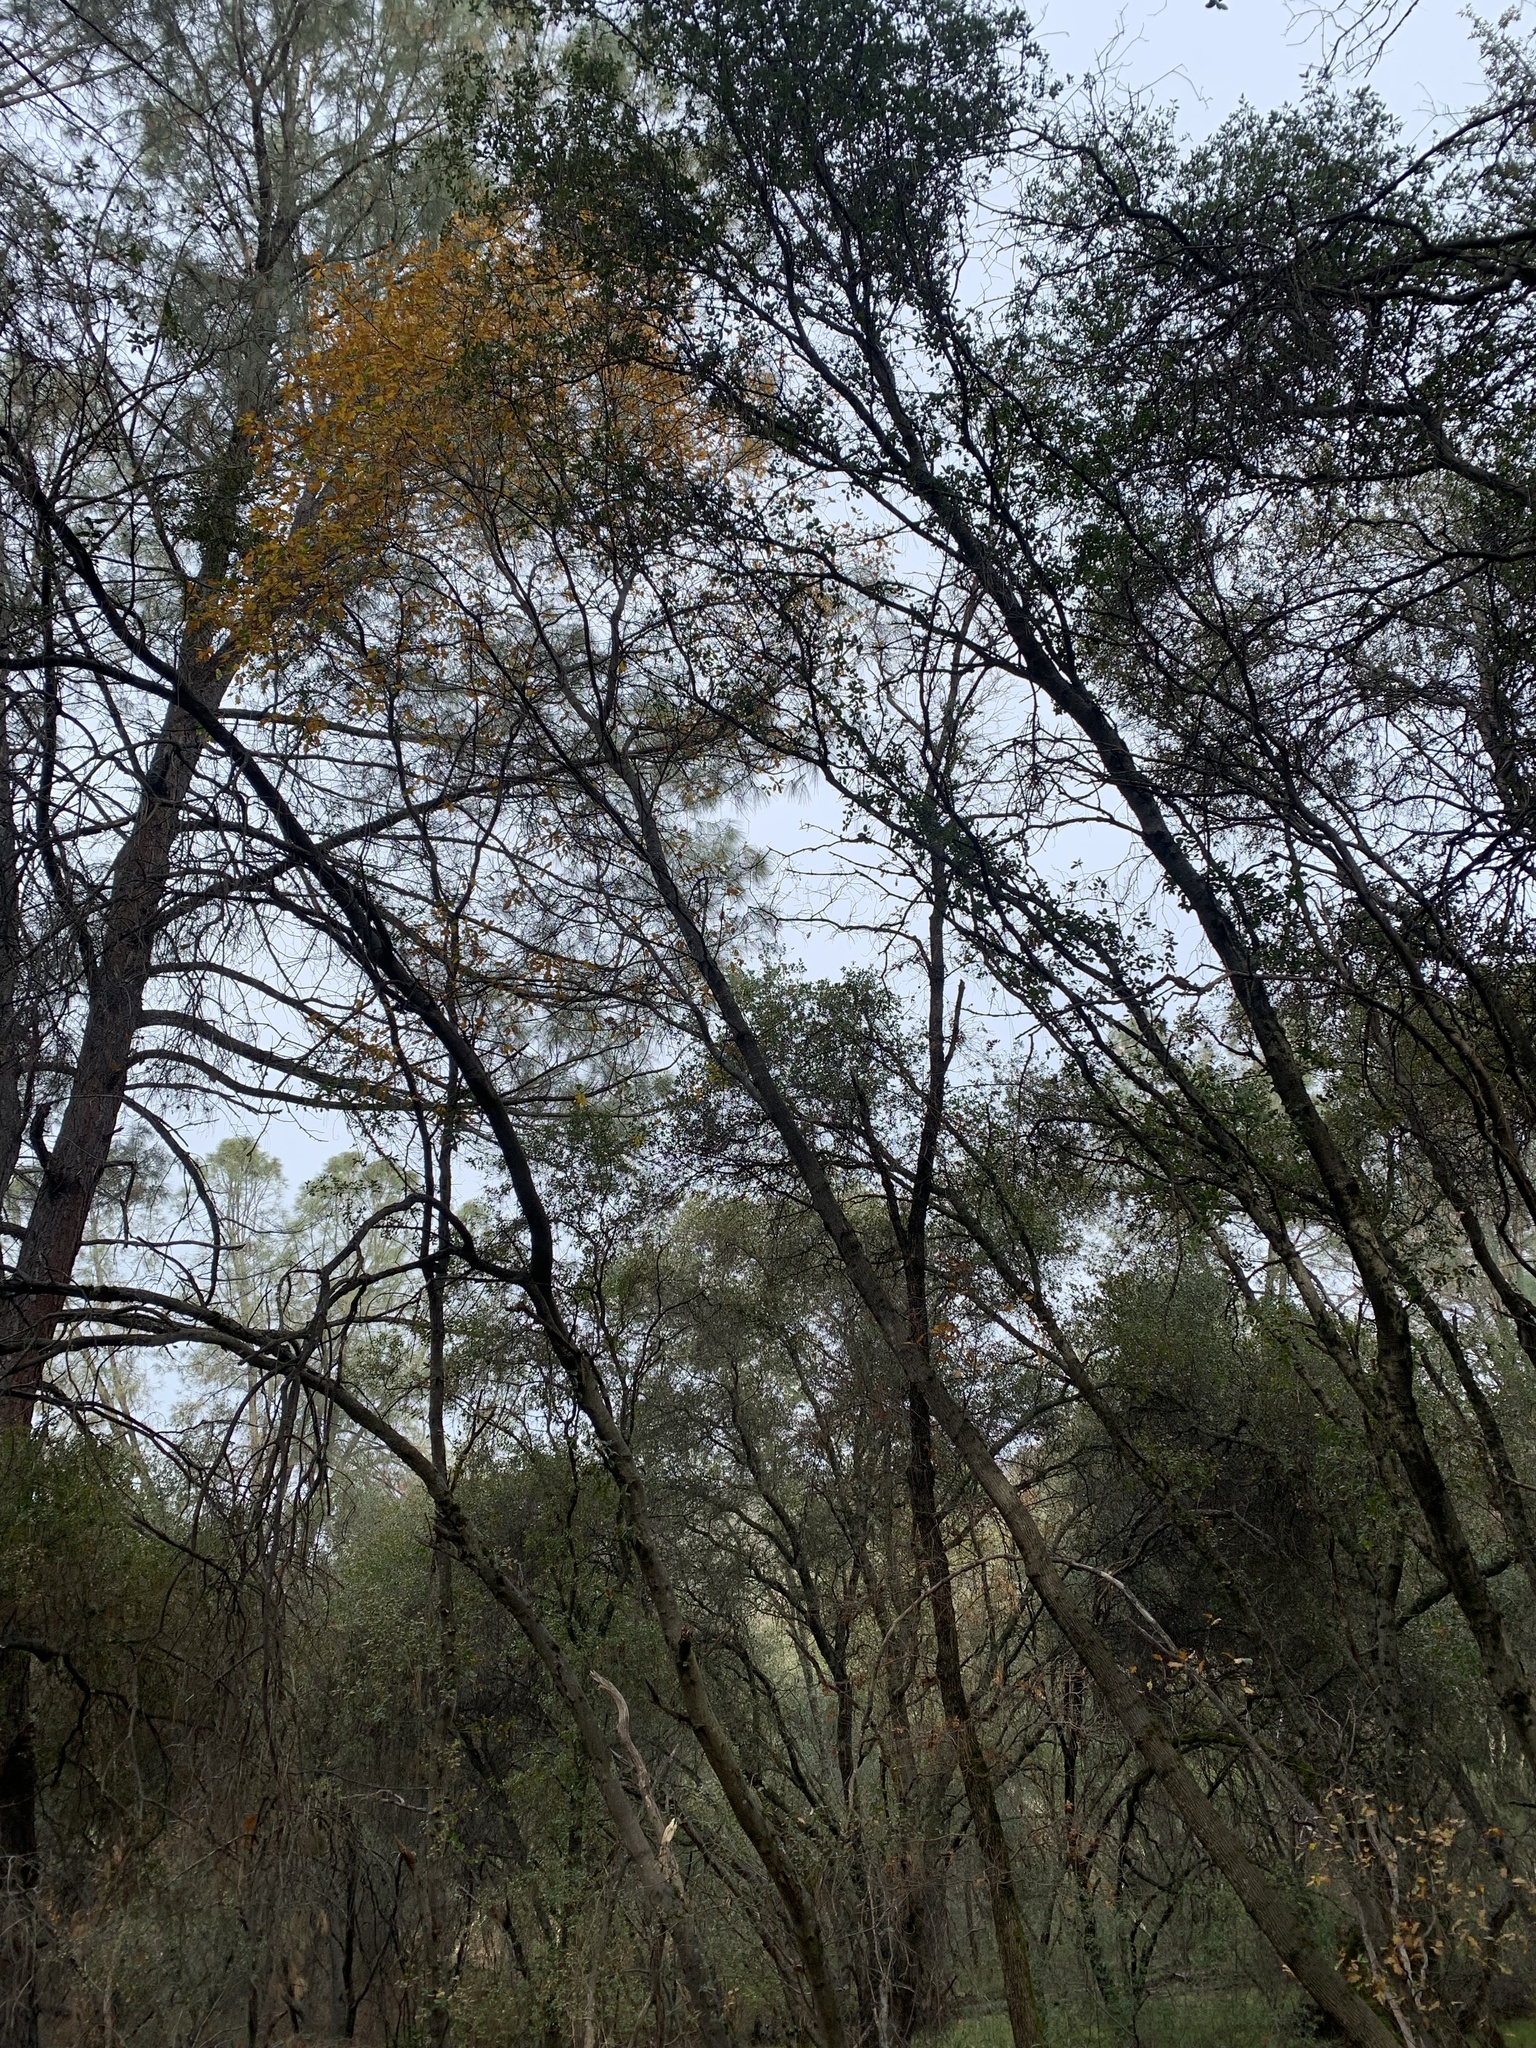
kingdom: Plantae
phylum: Tracheophyta
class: Magnoliopsida
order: Fagales
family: Fagaceae
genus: Quercus
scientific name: Quercus morehus
